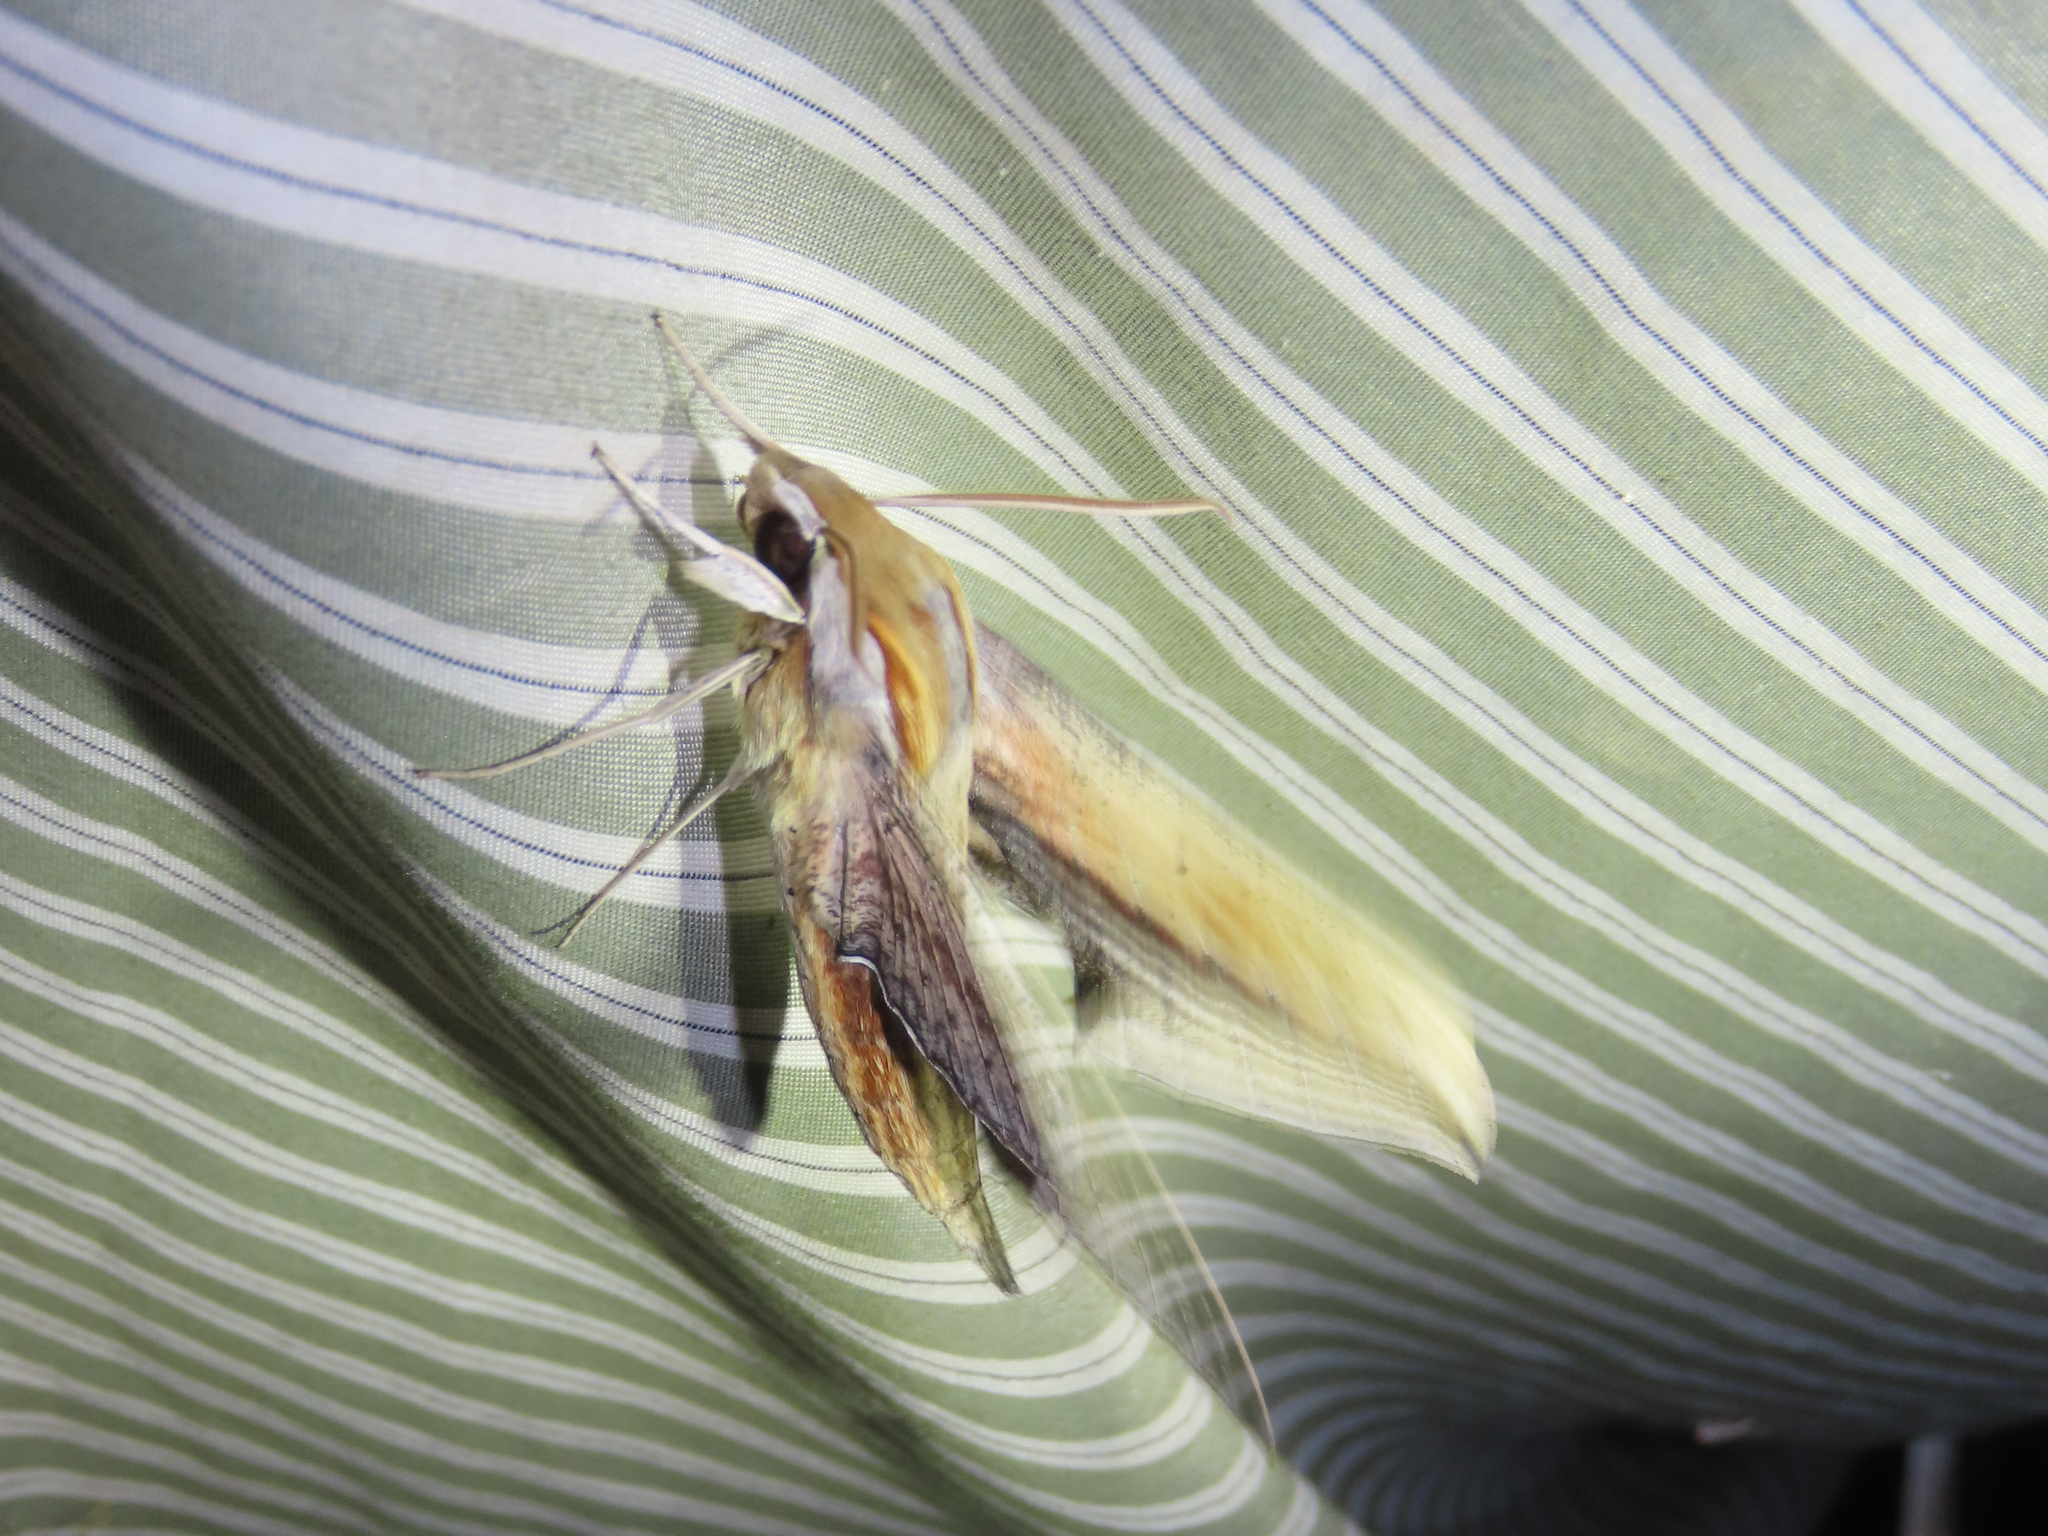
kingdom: Animalia
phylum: Arthropoda
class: Insecta
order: Lepidoptera
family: Sphingidae
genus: Xylophanes
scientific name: Xylophanes falco
